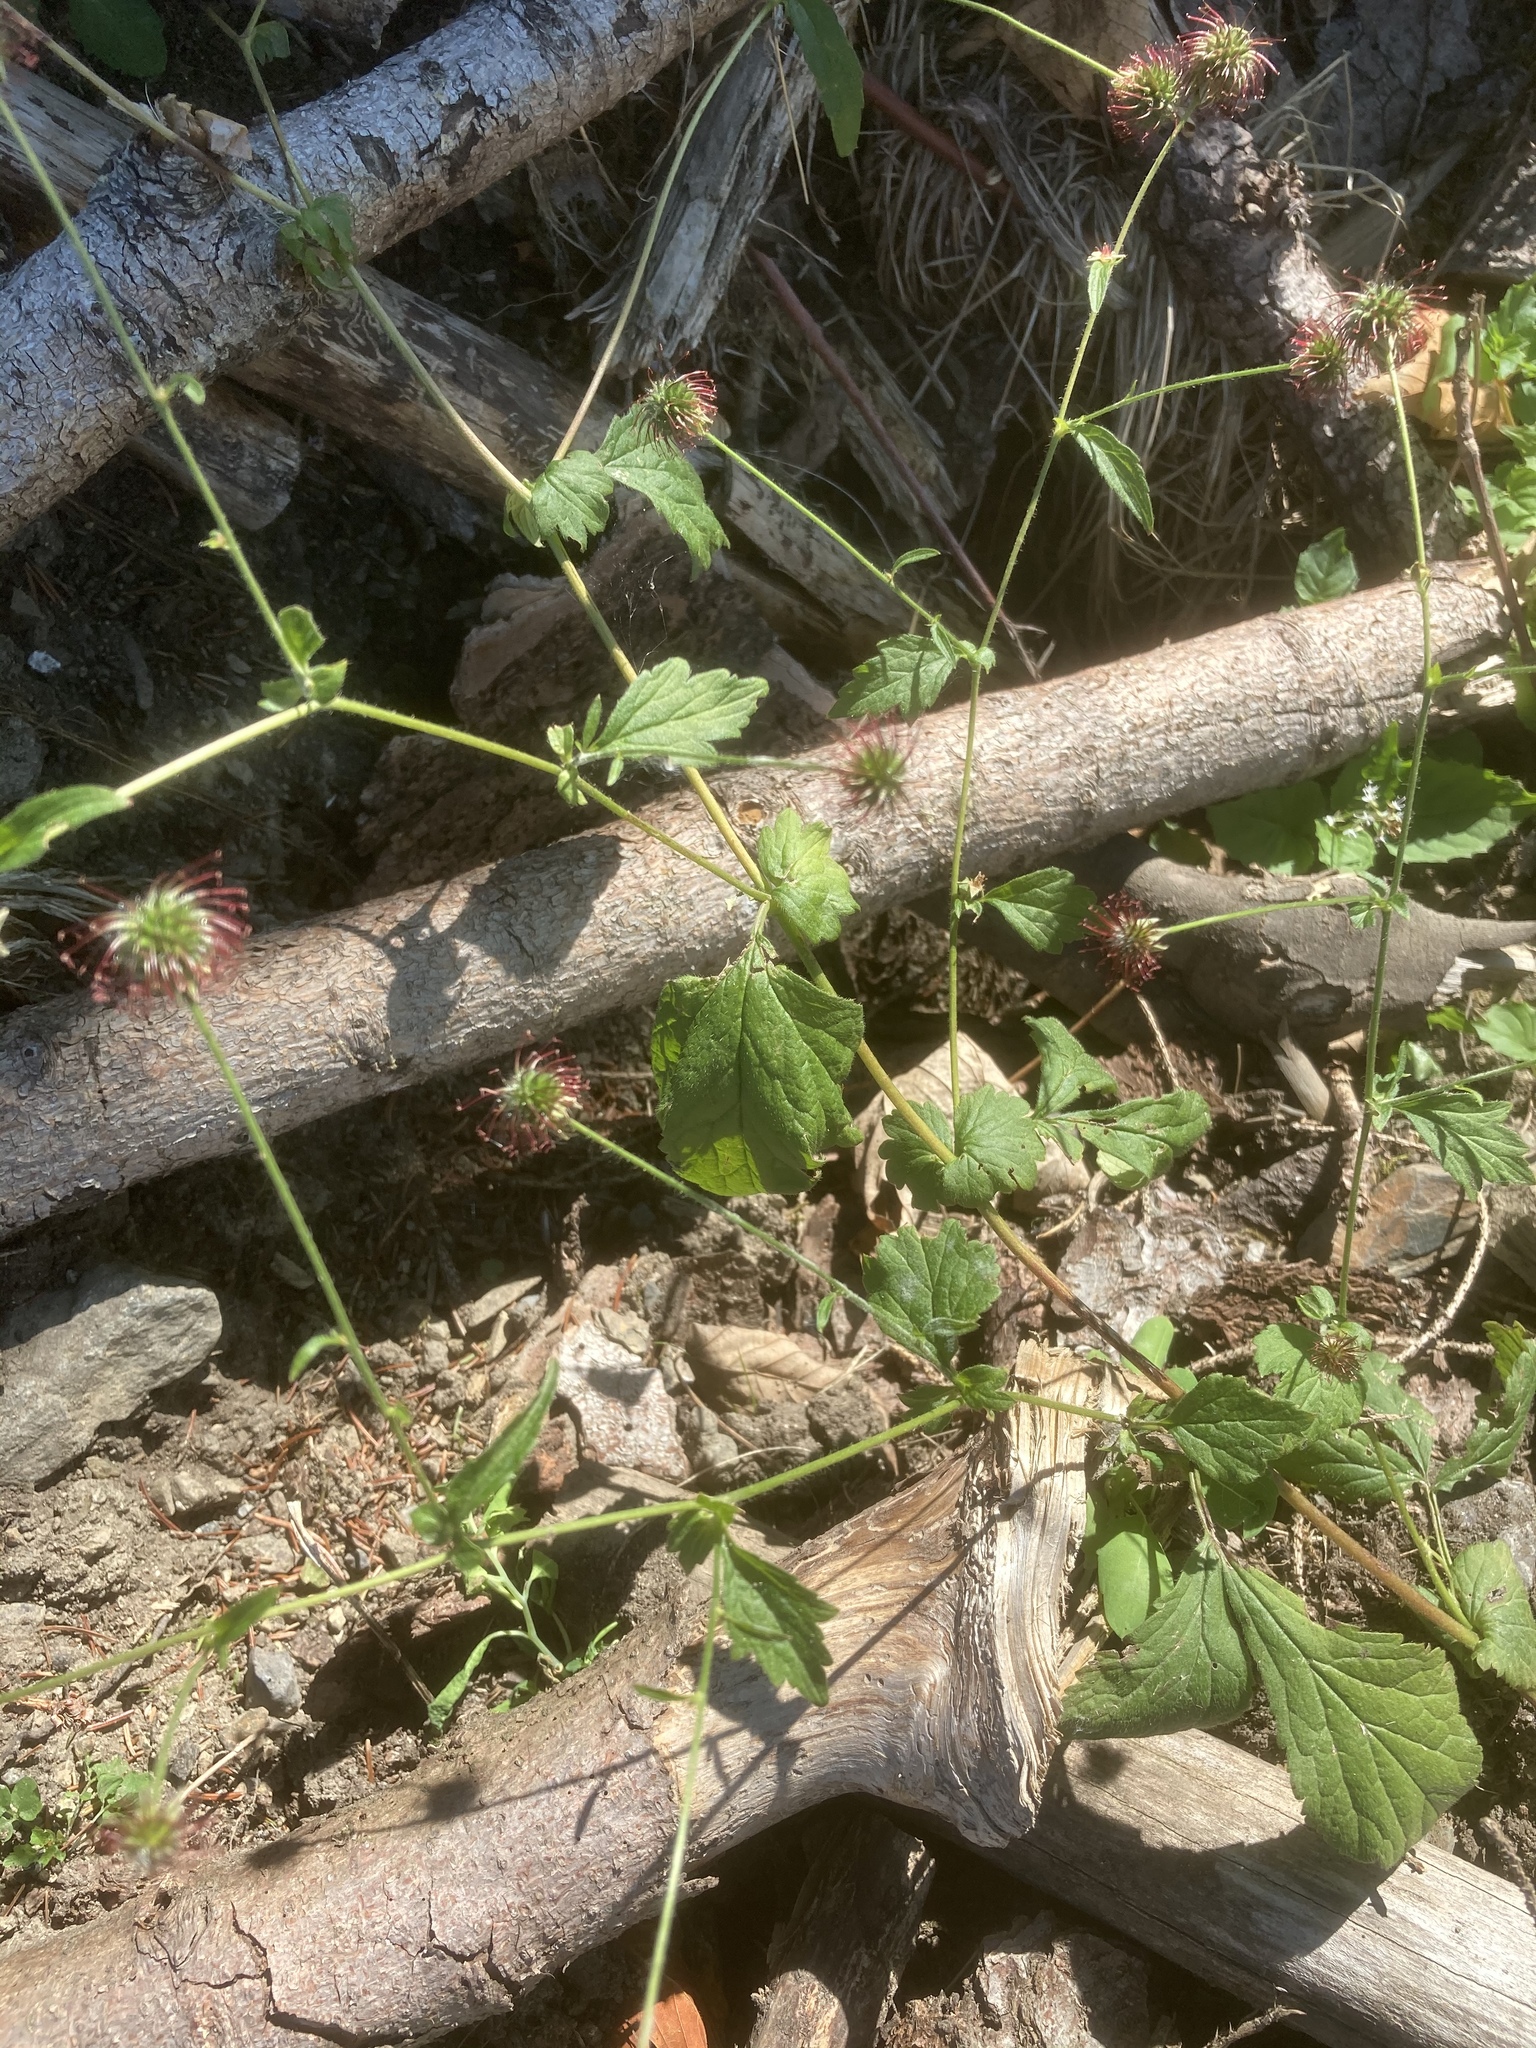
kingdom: Plantae
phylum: Tracheophyta
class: Magnoliopsida
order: Rosales
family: Rosaceae
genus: Geum
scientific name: Geum urbanum
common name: Wood avens
